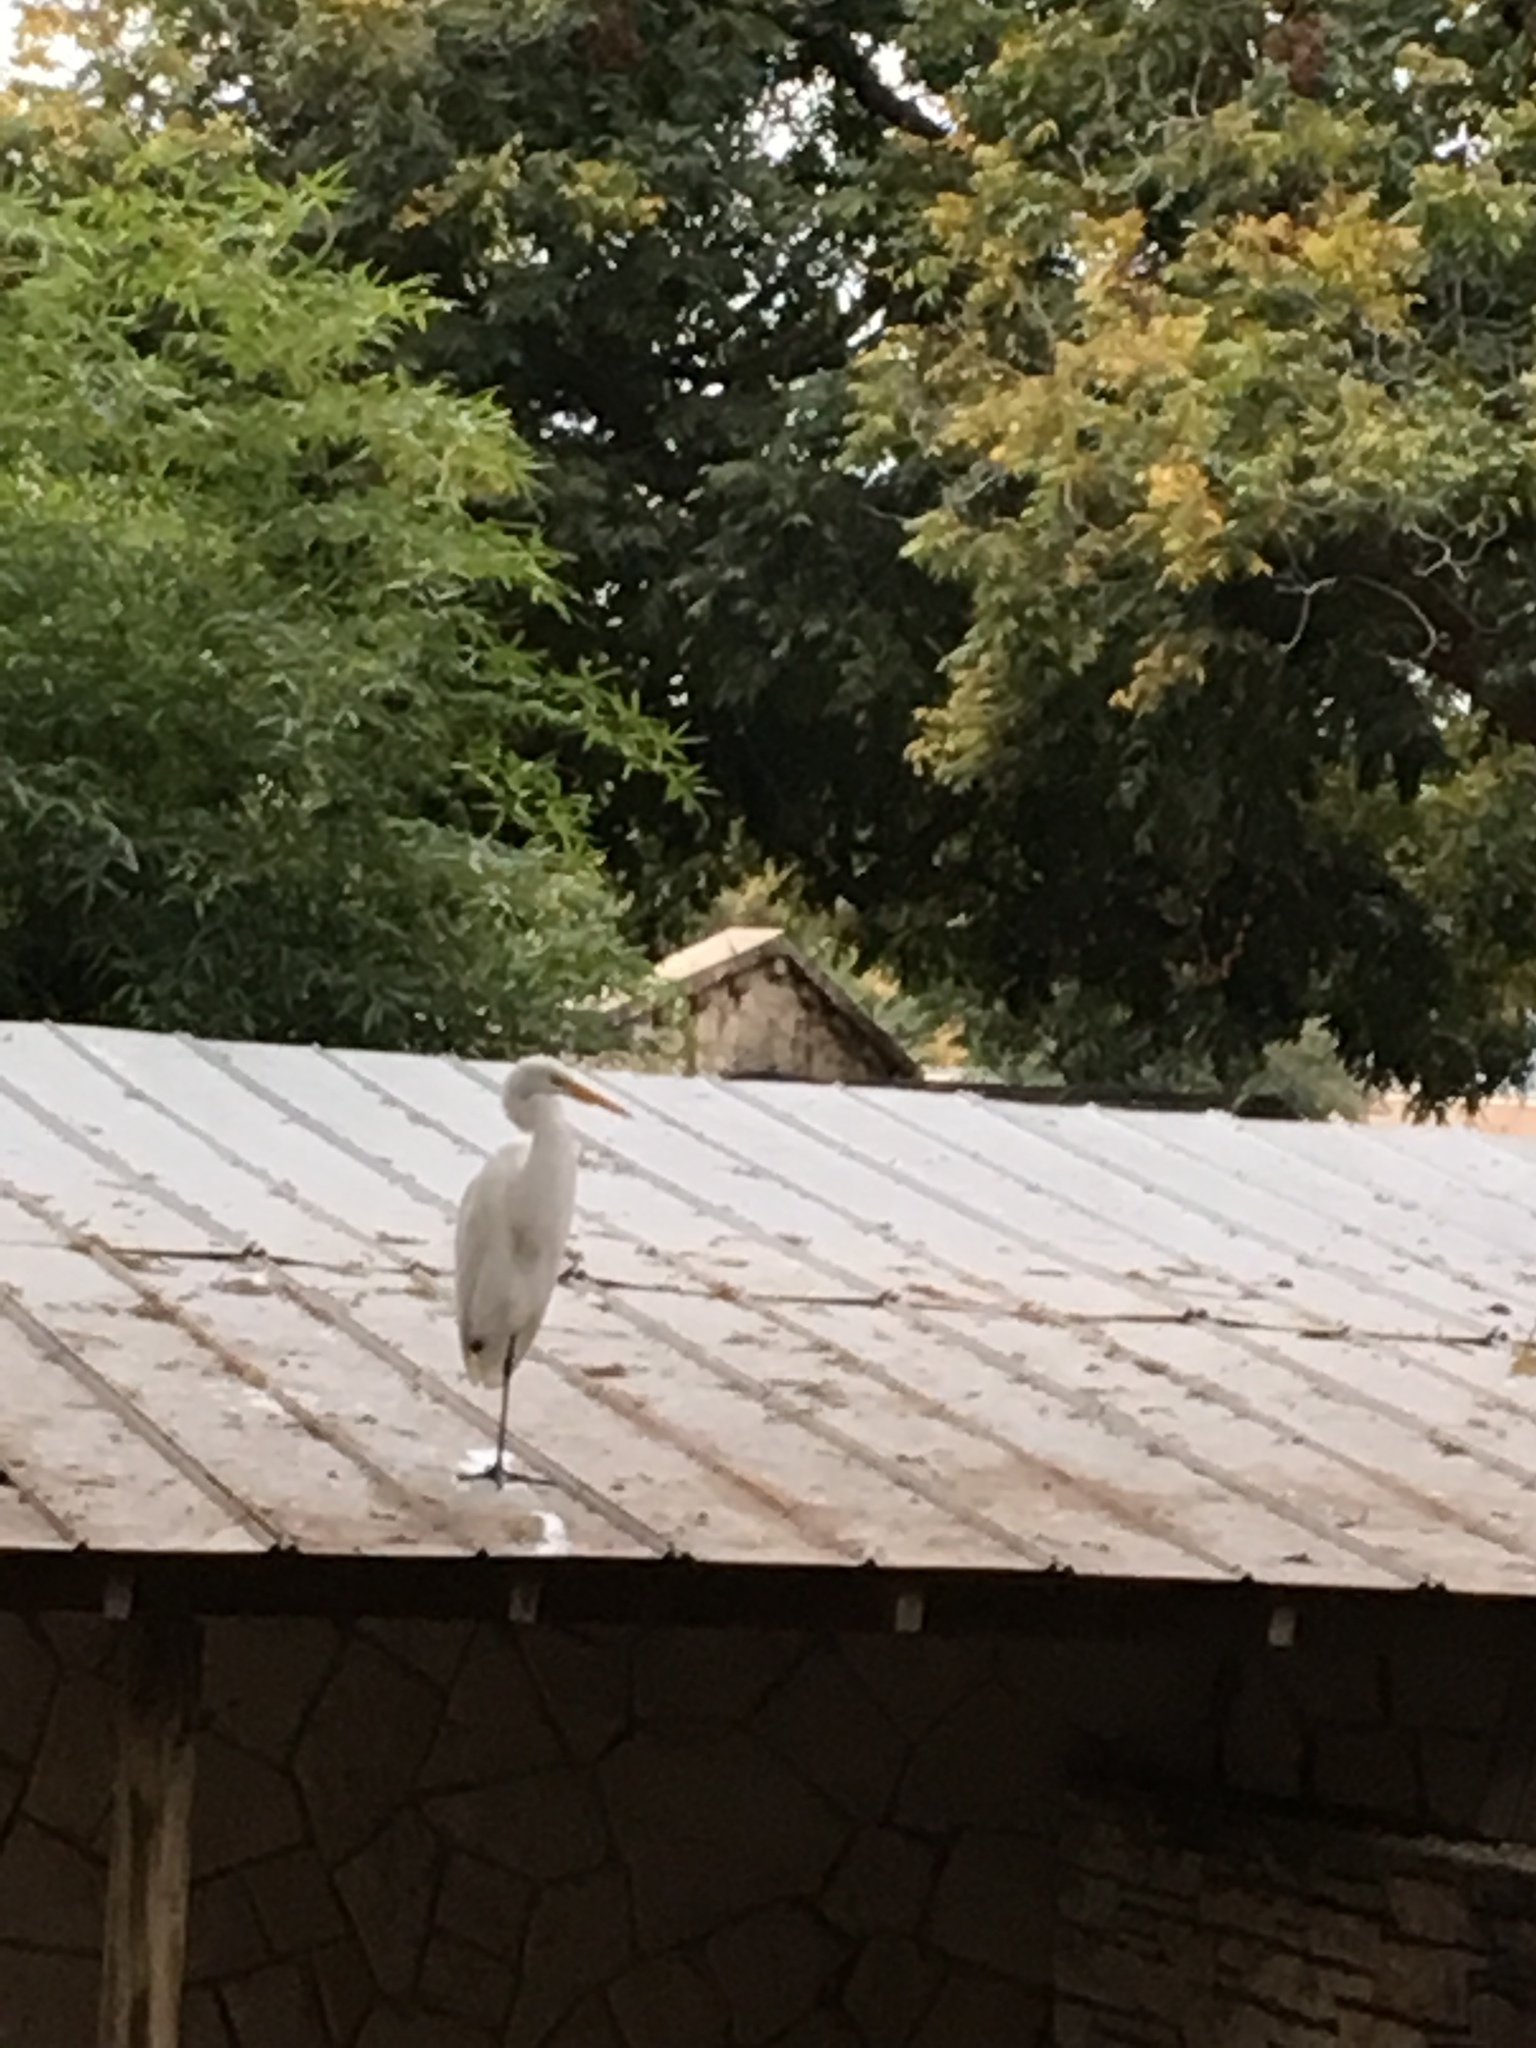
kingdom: Animalia
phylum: Chordata
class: Aves
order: Pelecaniformes
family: Ardeidae
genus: Ardea
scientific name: Ardea alba
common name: Great egret
